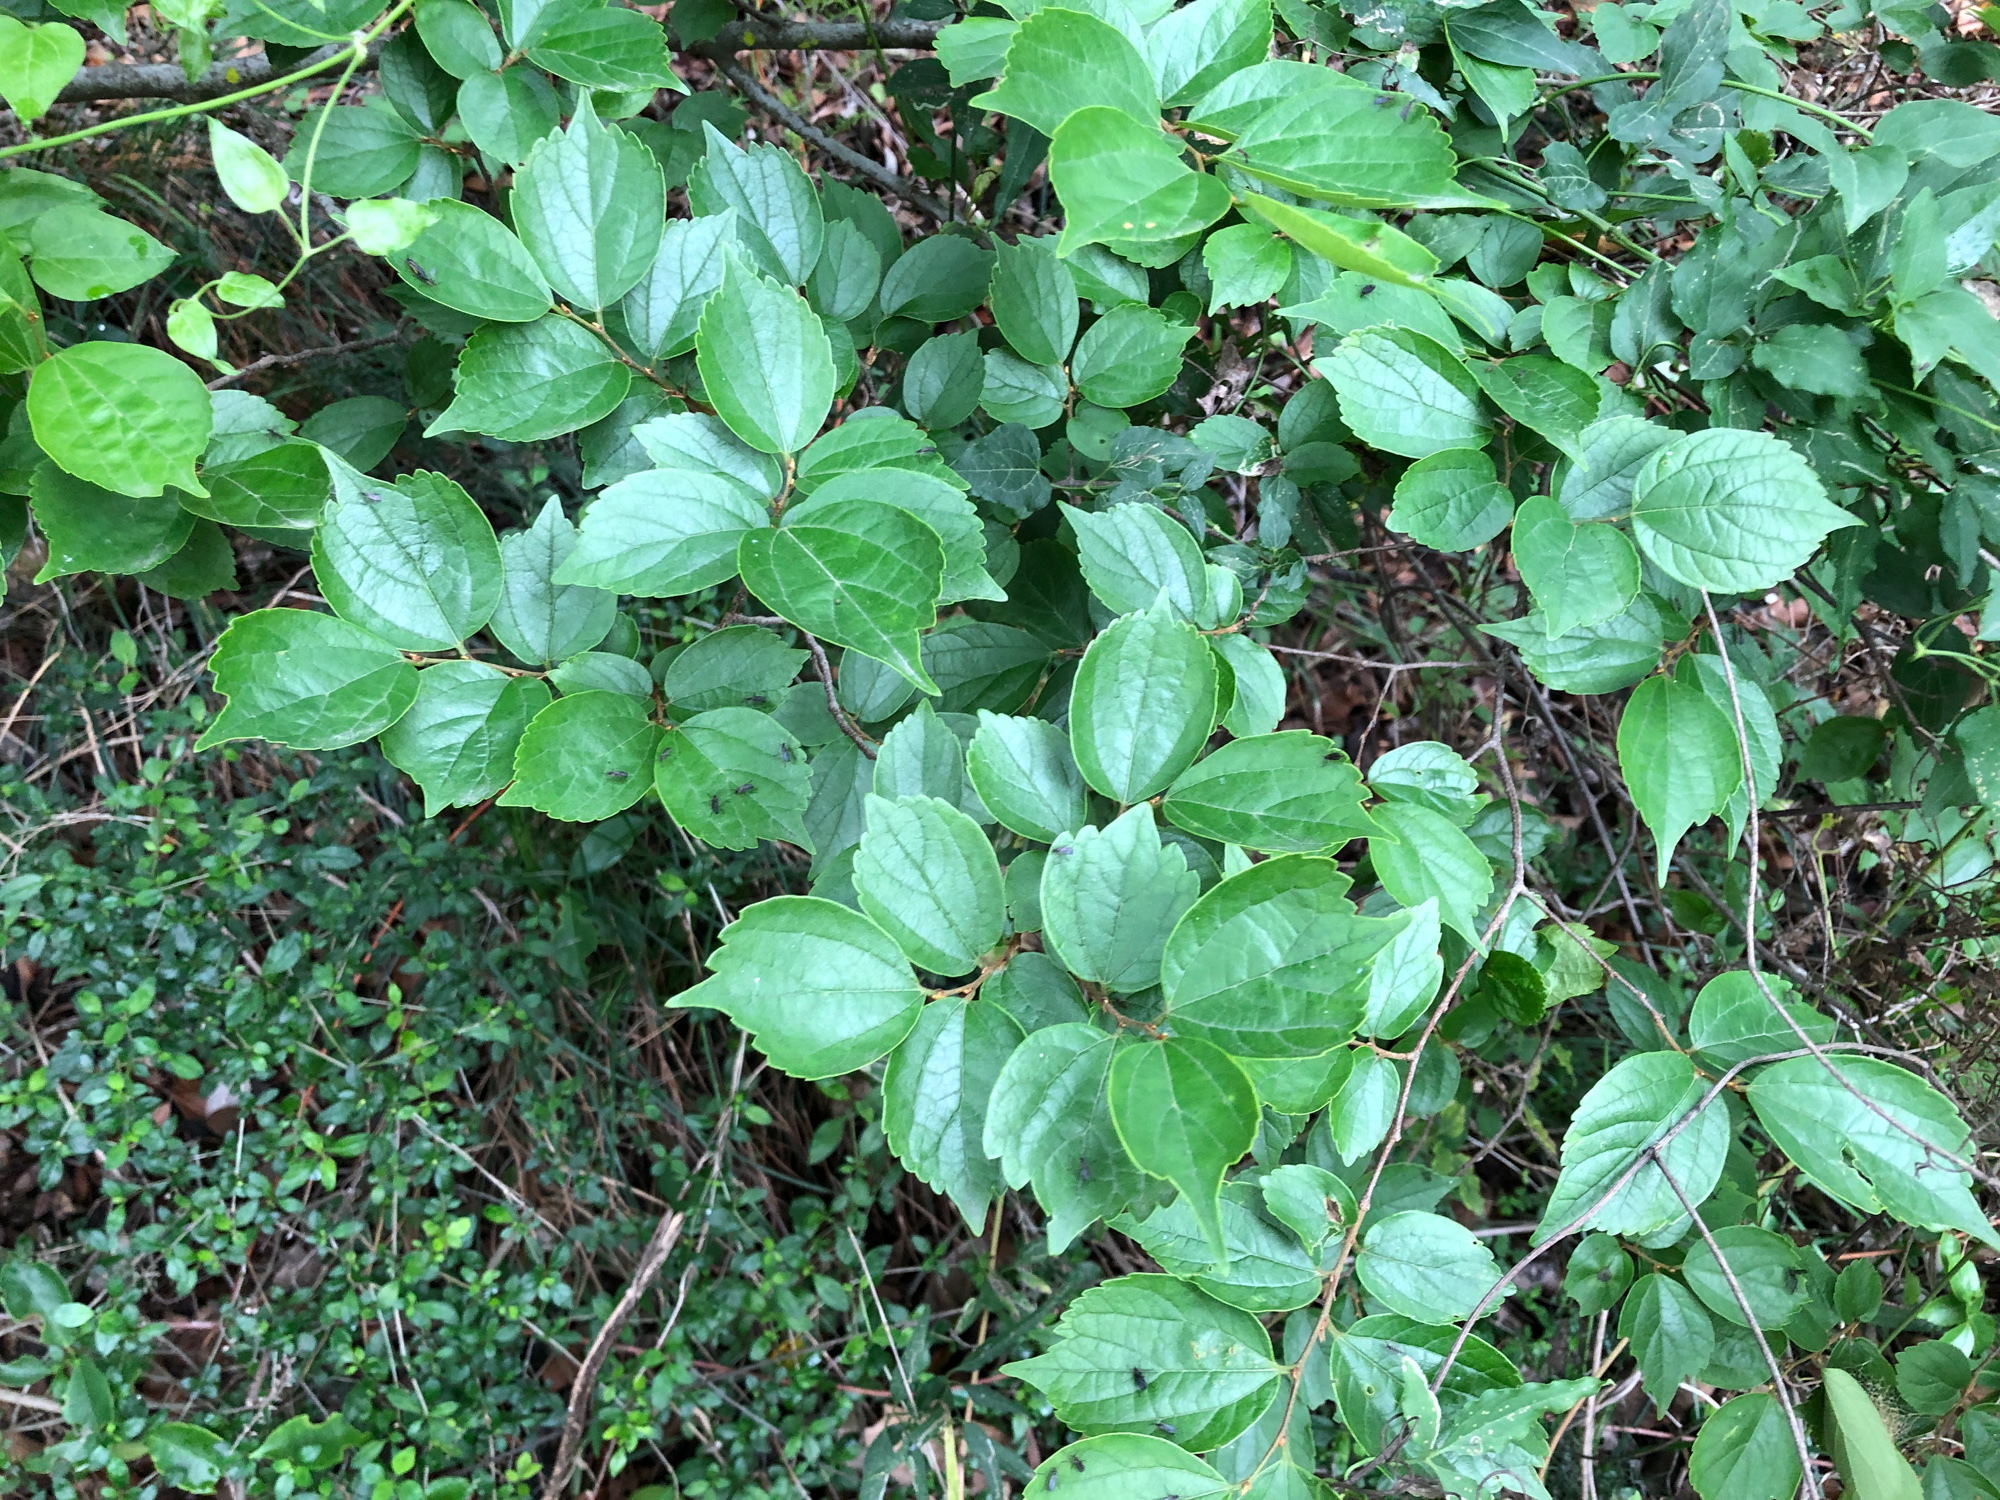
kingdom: Plantae
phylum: Tracheophyta
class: Magnoliopsida
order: Rosales
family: Cannabaceae
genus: Celtis
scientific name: Celtis biondii
